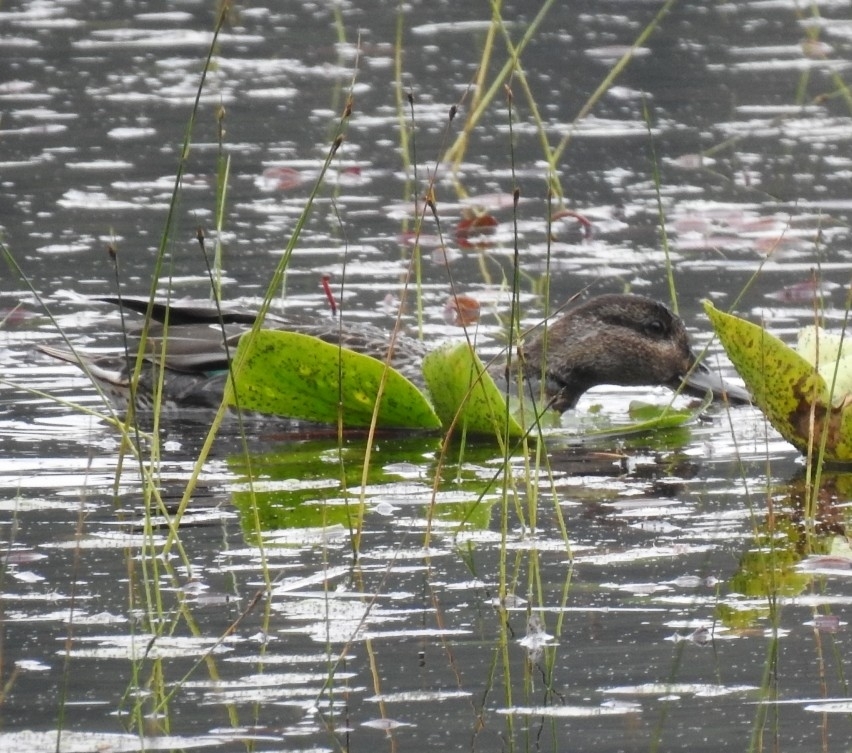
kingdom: Animalia
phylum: Chordata
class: Aves
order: Anseriformes
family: Anatidae
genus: Anas
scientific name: Anas crecca
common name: Eurasian teal
